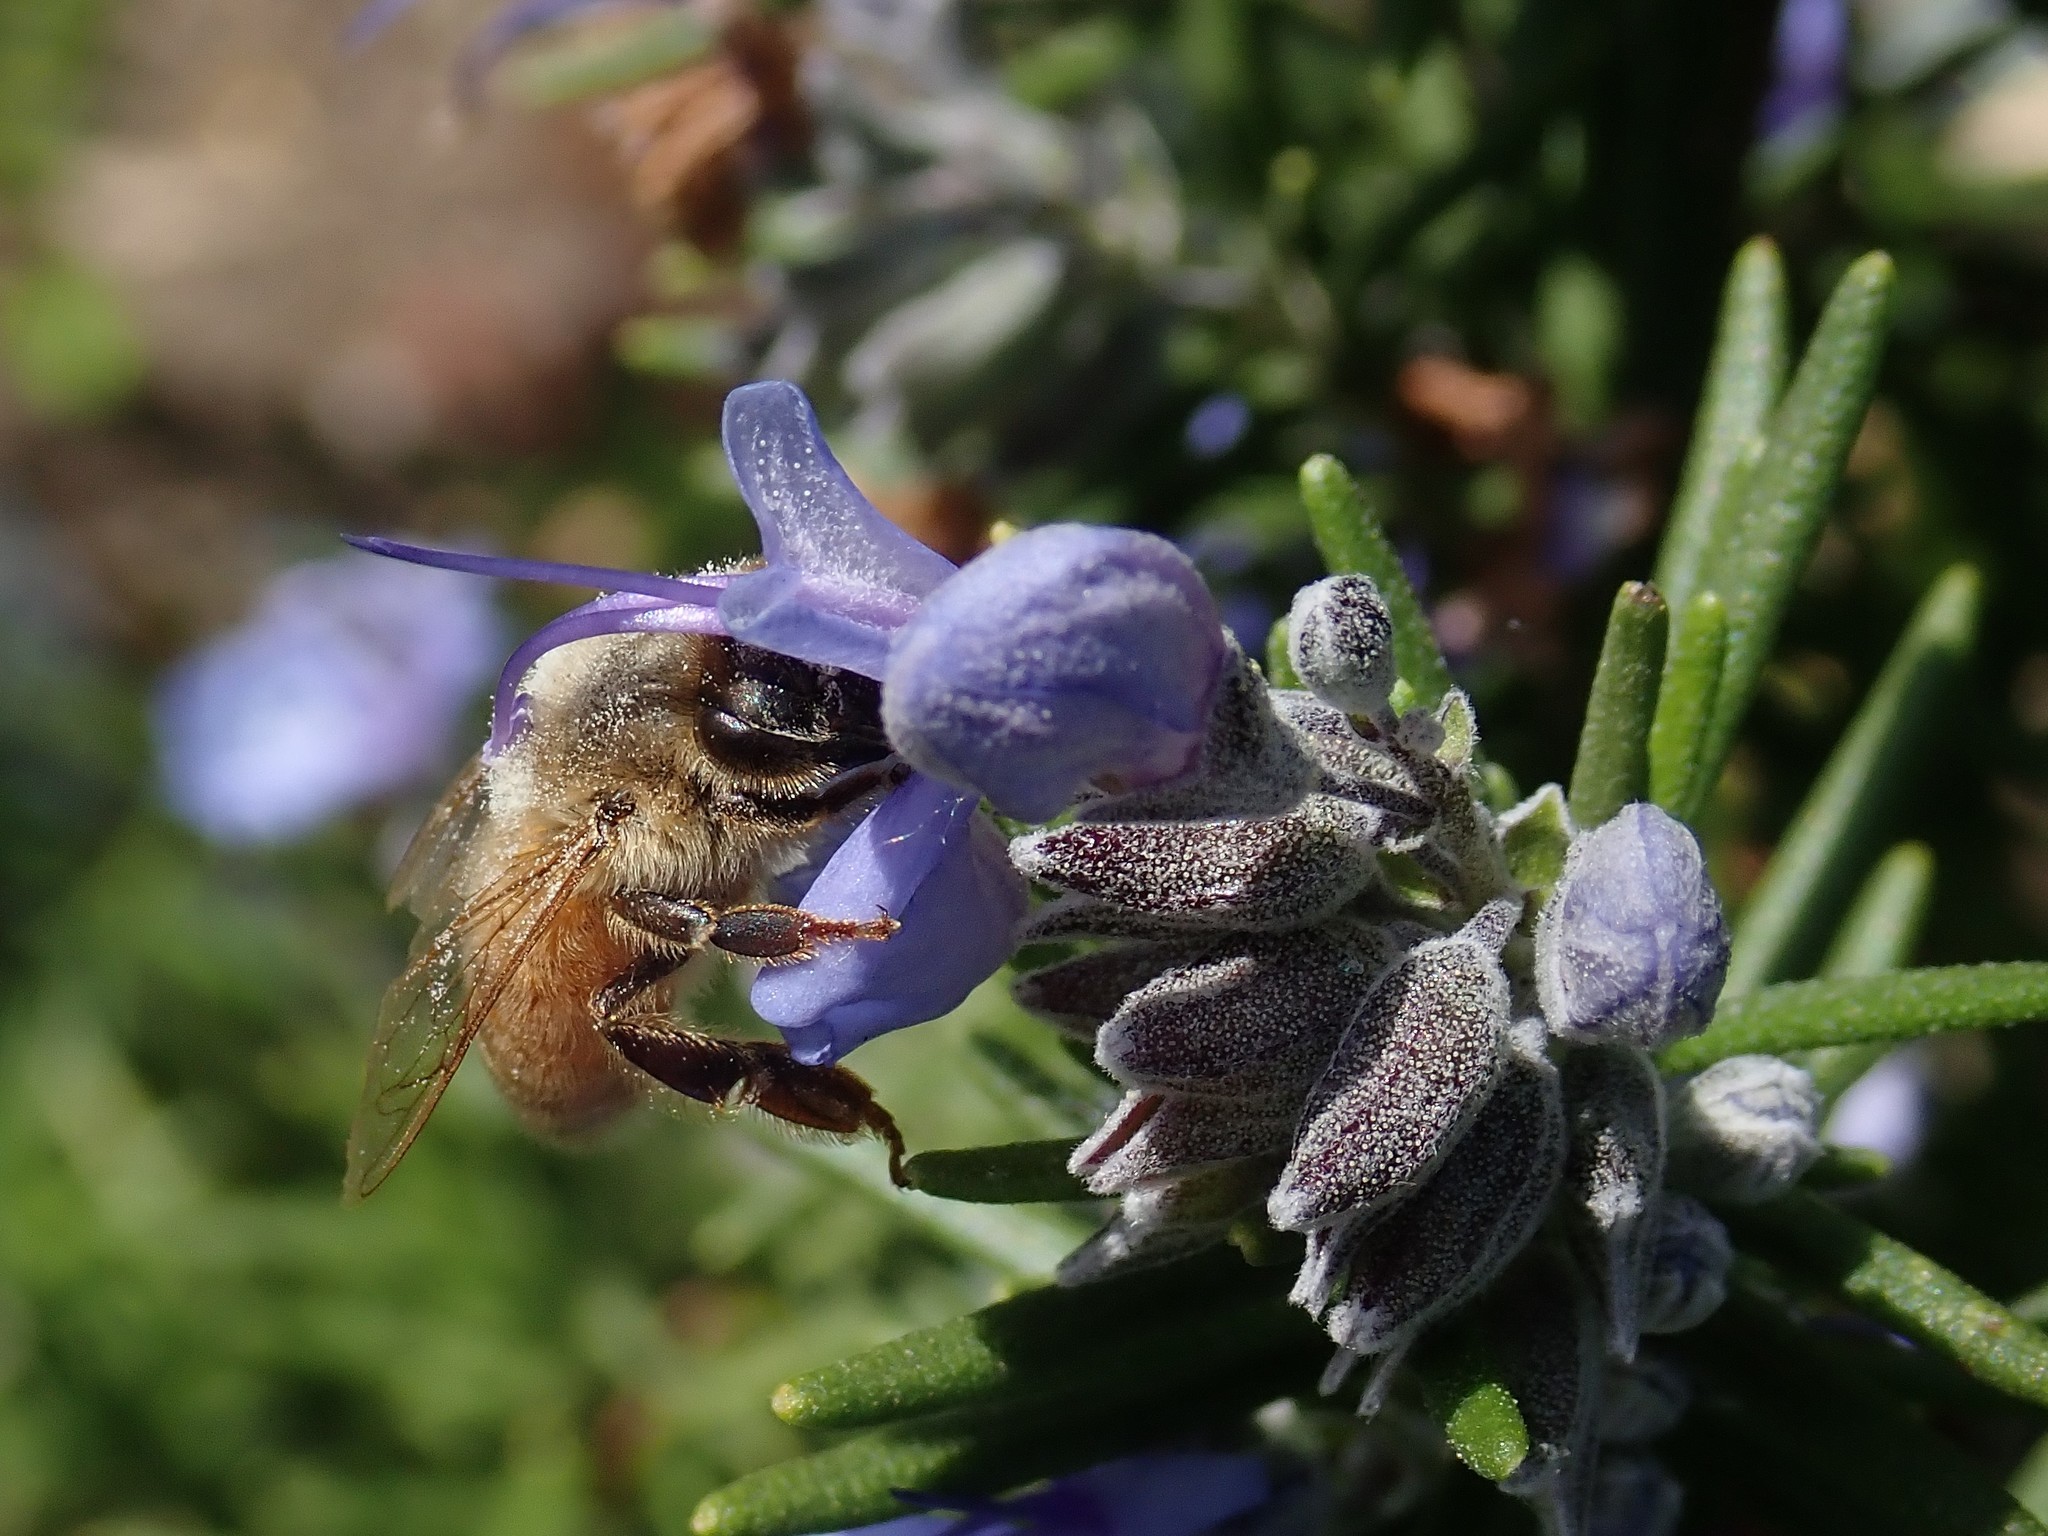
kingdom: Animalia
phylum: Arthropoda
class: Insecta
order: Hymenoptera
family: Apidae
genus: Apis
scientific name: Apis mellifera
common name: Honey bee
